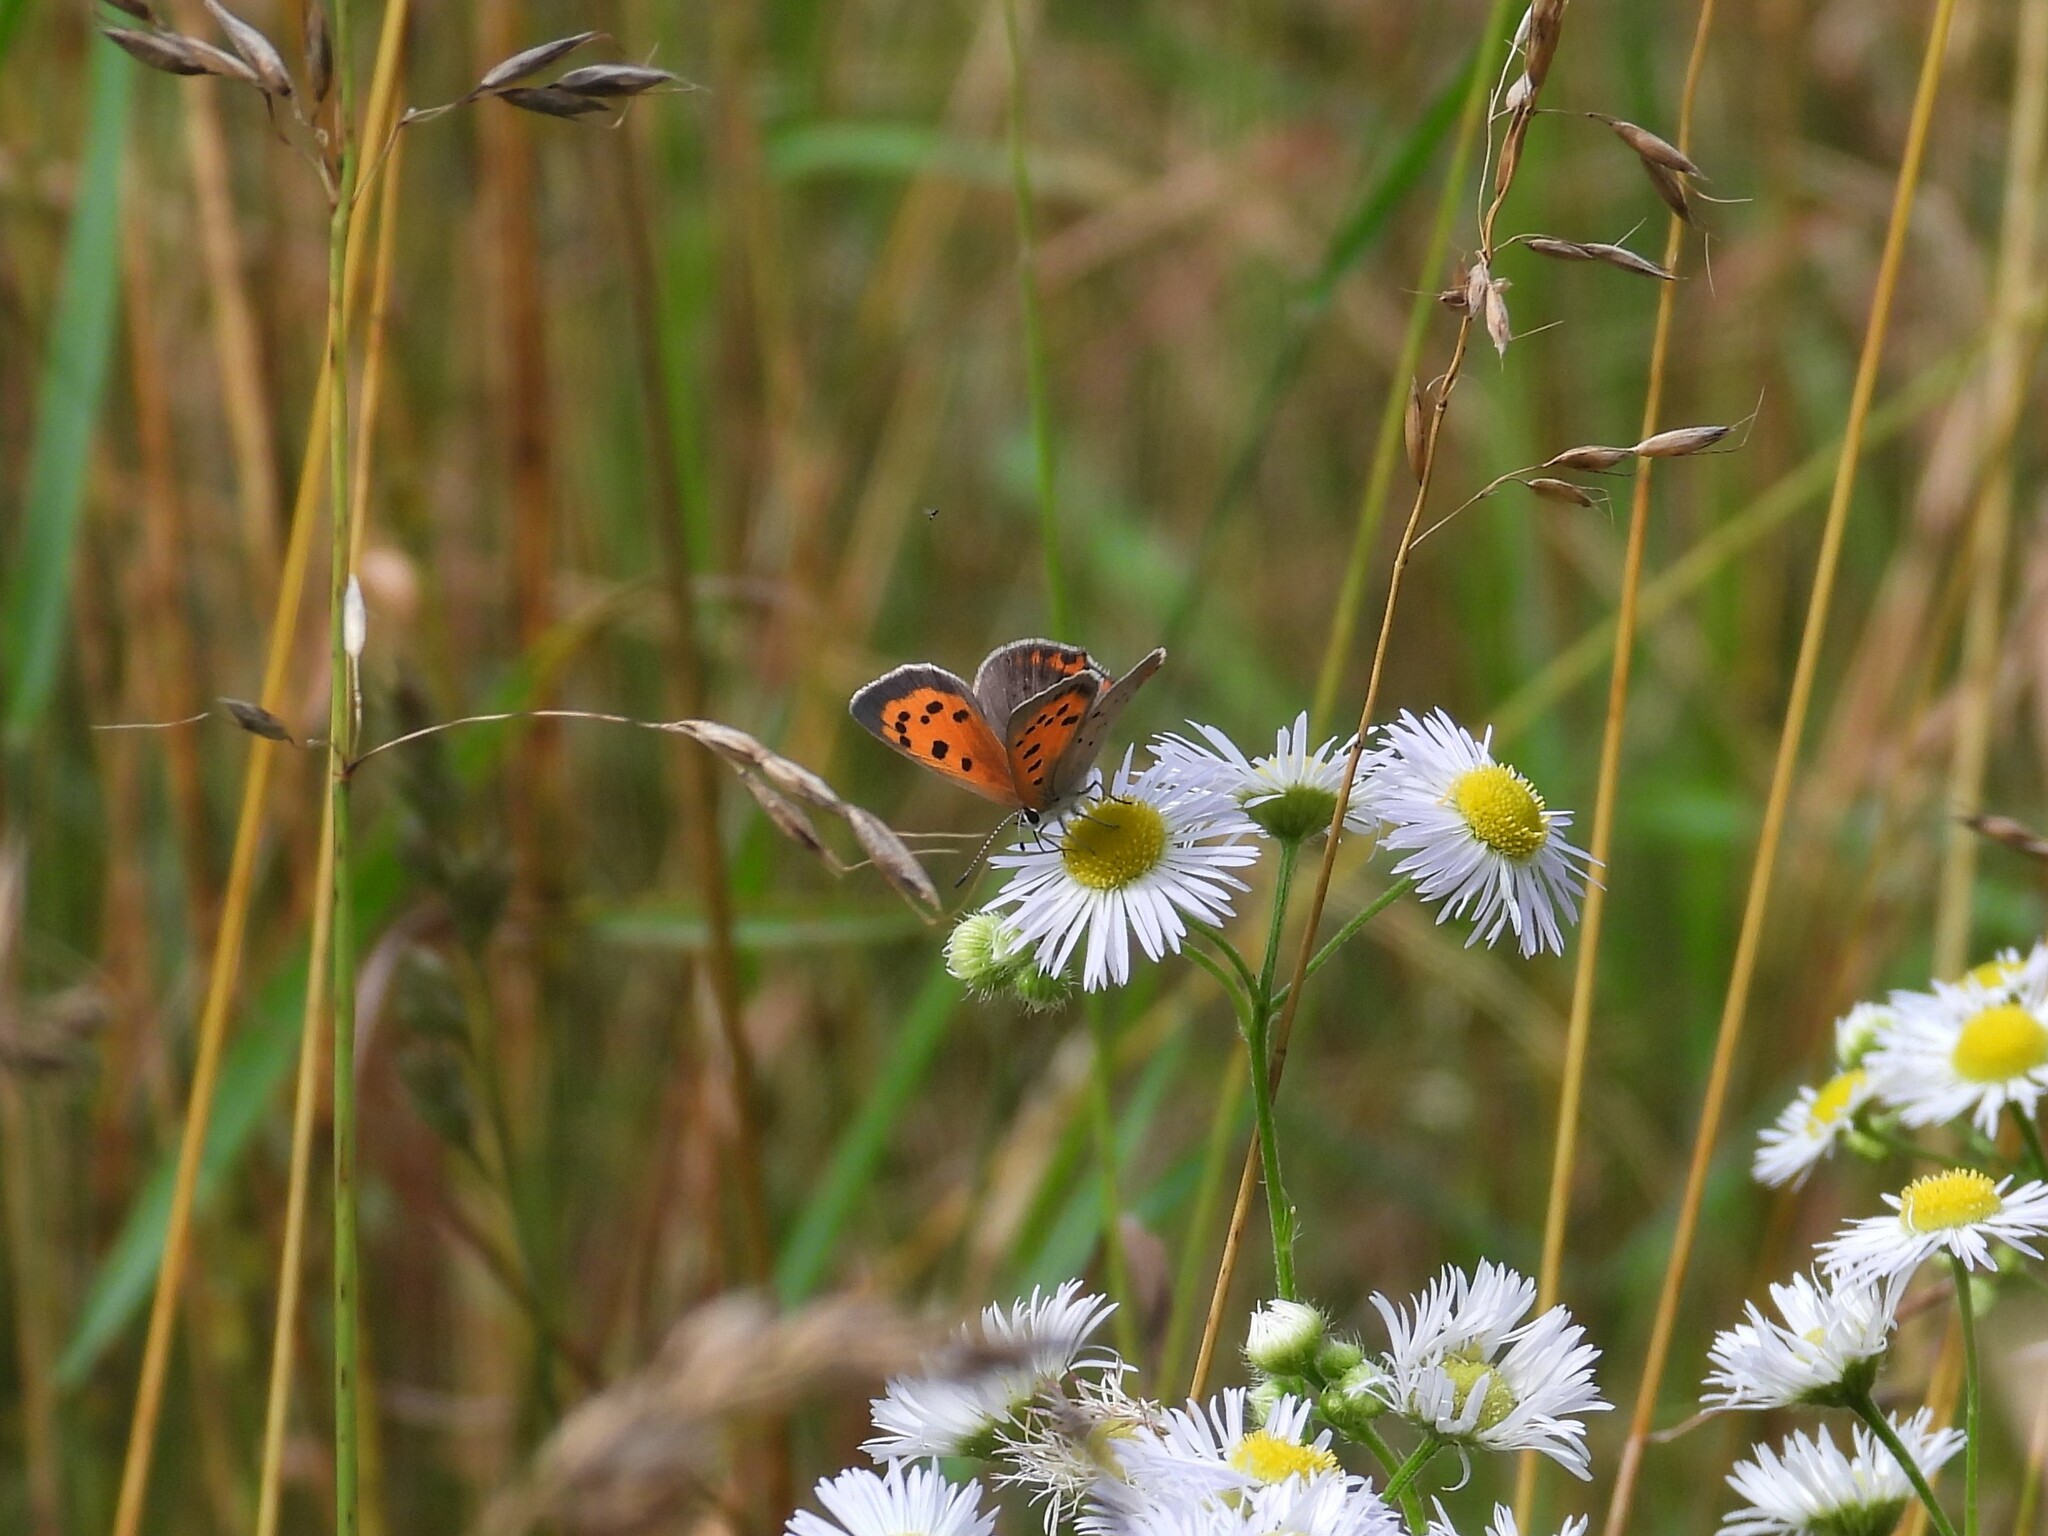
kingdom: Animalia
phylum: Arthropoda
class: Insecta
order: Lepidoptera
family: Lycaenidae
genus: Lycaena
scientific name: Lycaena hypophlaeas
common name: American copper
